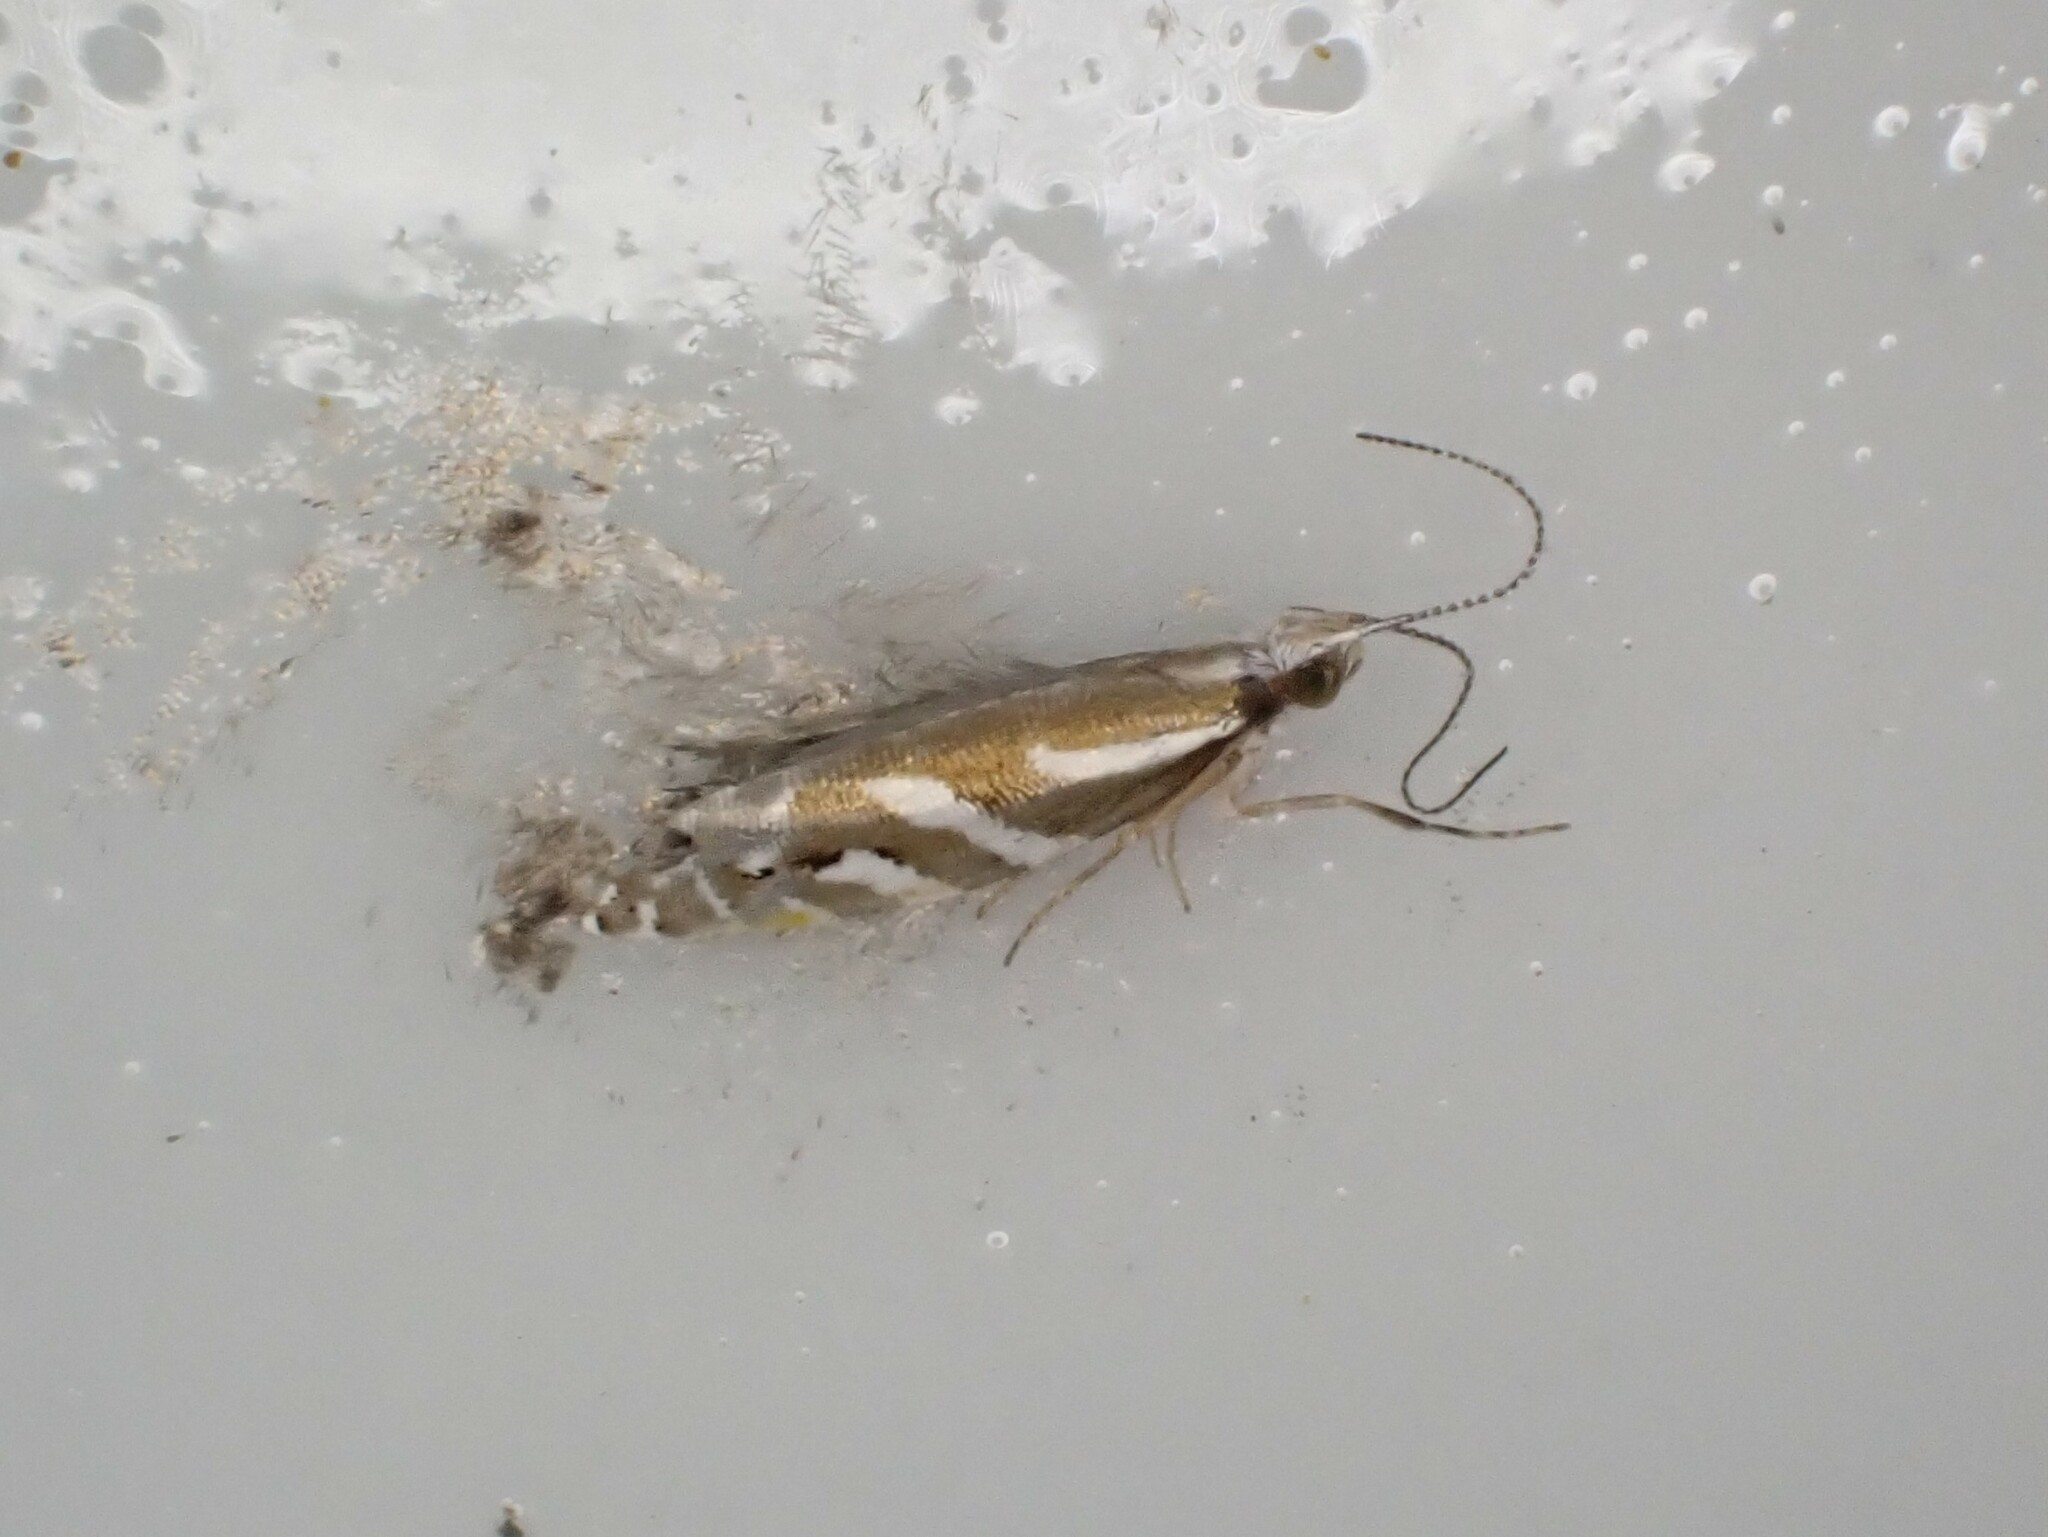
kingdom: Animalia
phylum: Arthropoda
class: Insecta
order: Lepidoptera
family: Glyphipterigidae
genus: Chrysorthenches
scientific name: Chrysorthenches glypharcha
